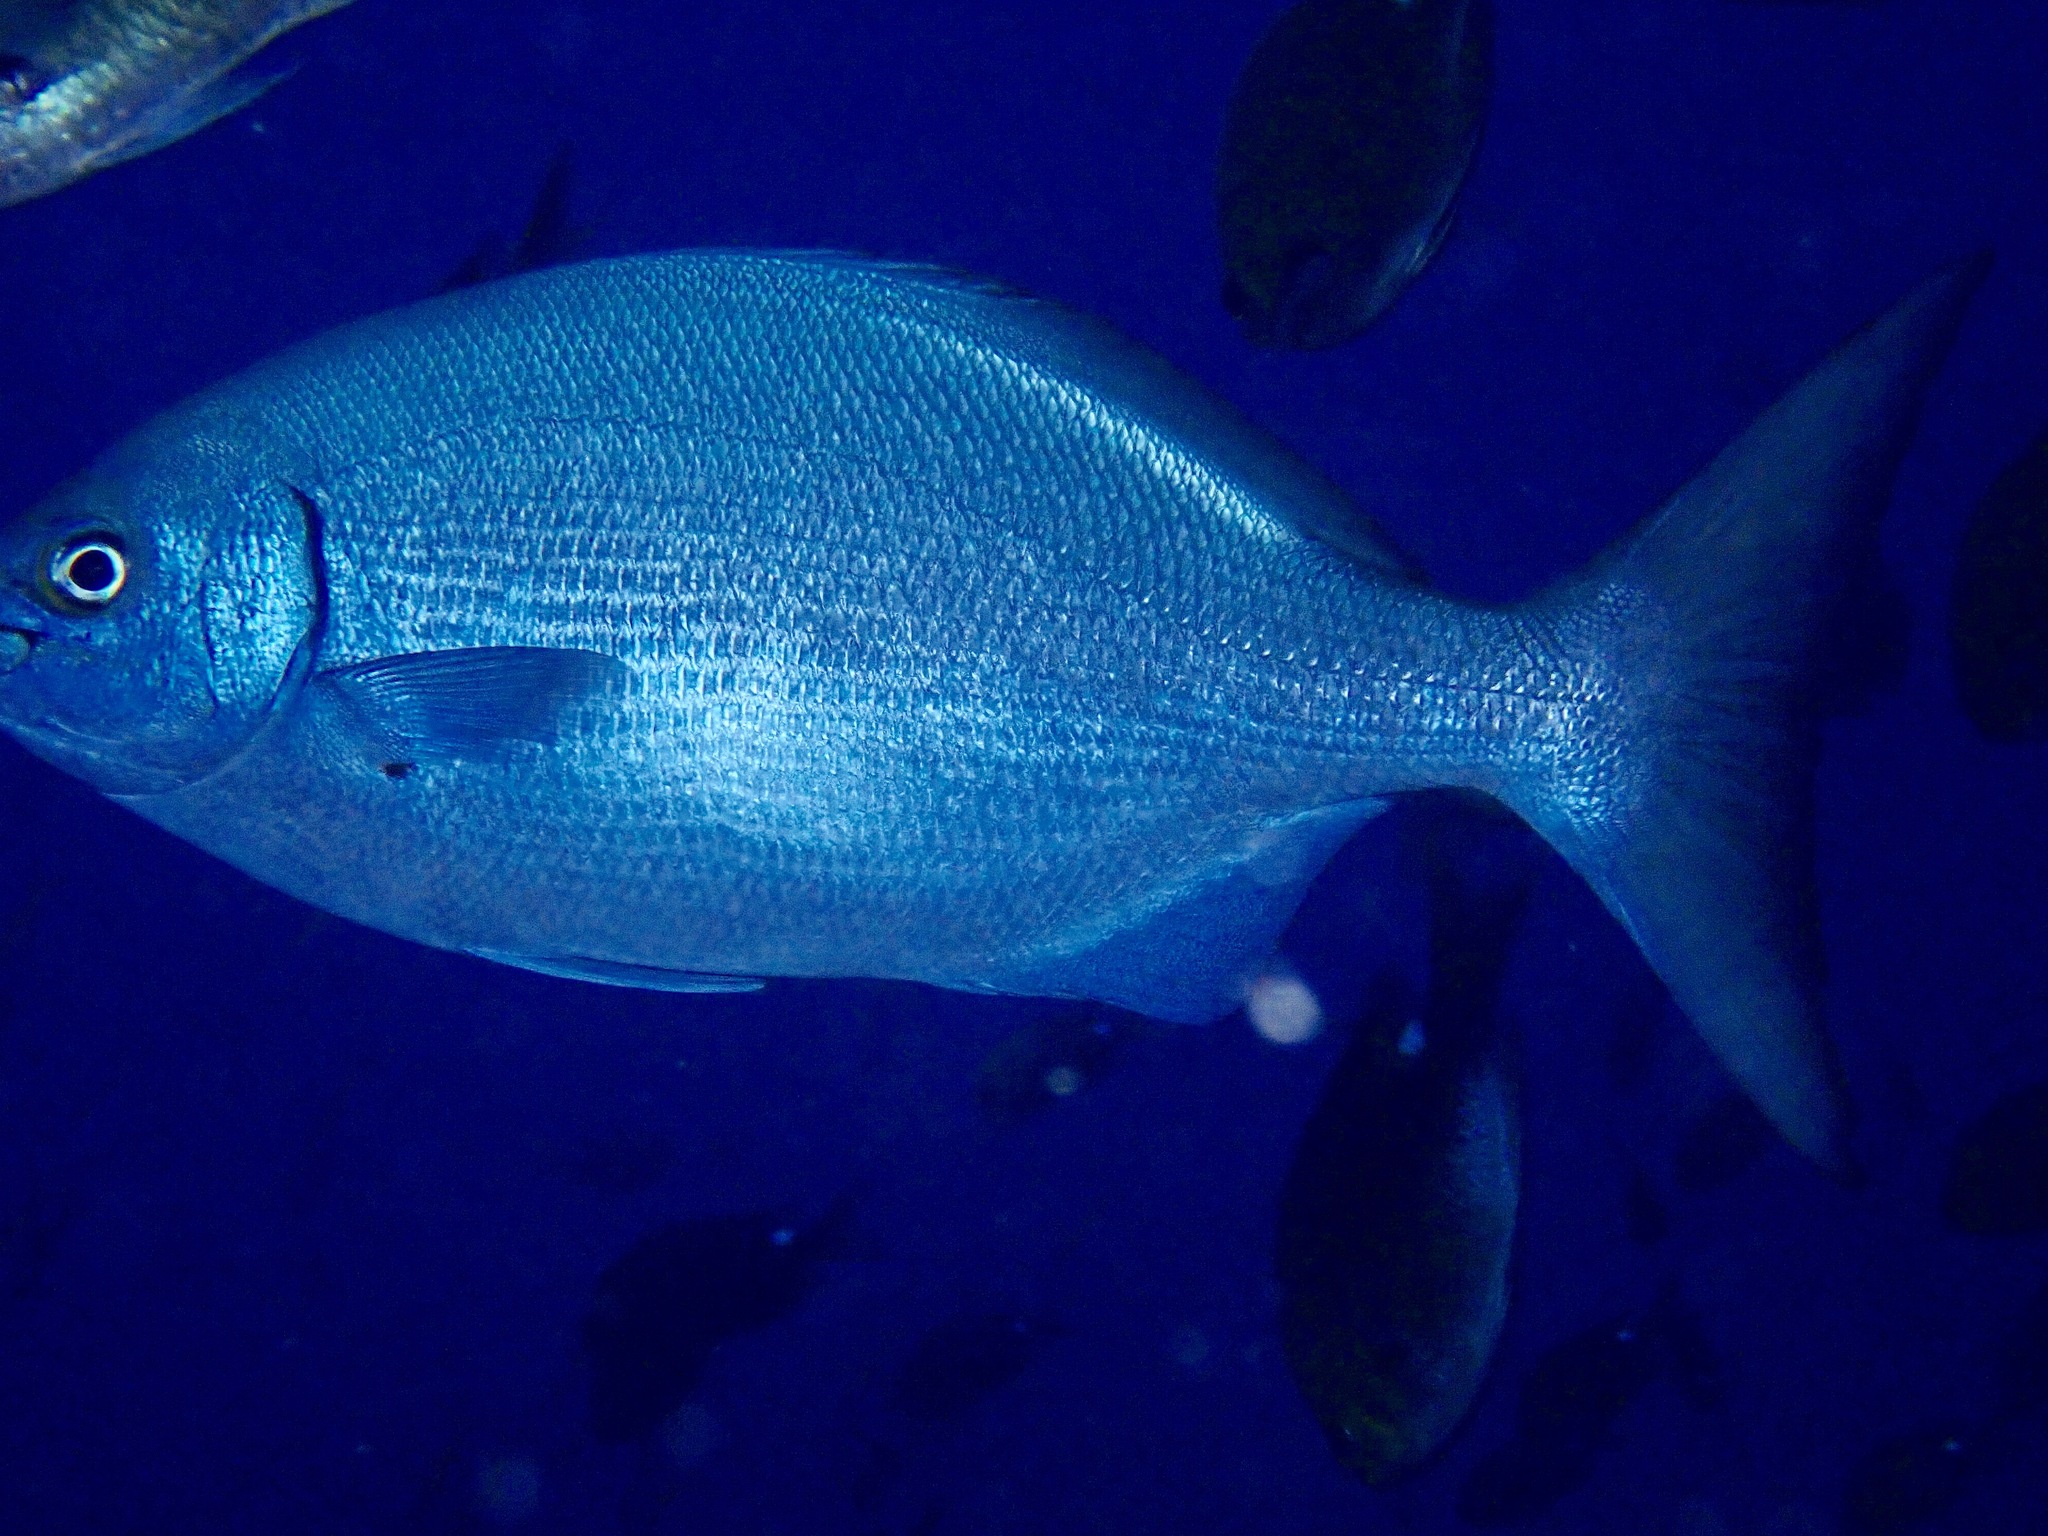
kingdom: Animalia
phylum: Chordata
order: Perciformes
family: Kyphosidae
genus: Kyphosus
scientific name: Kyphosus sectatrix
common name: Bermuda chub
